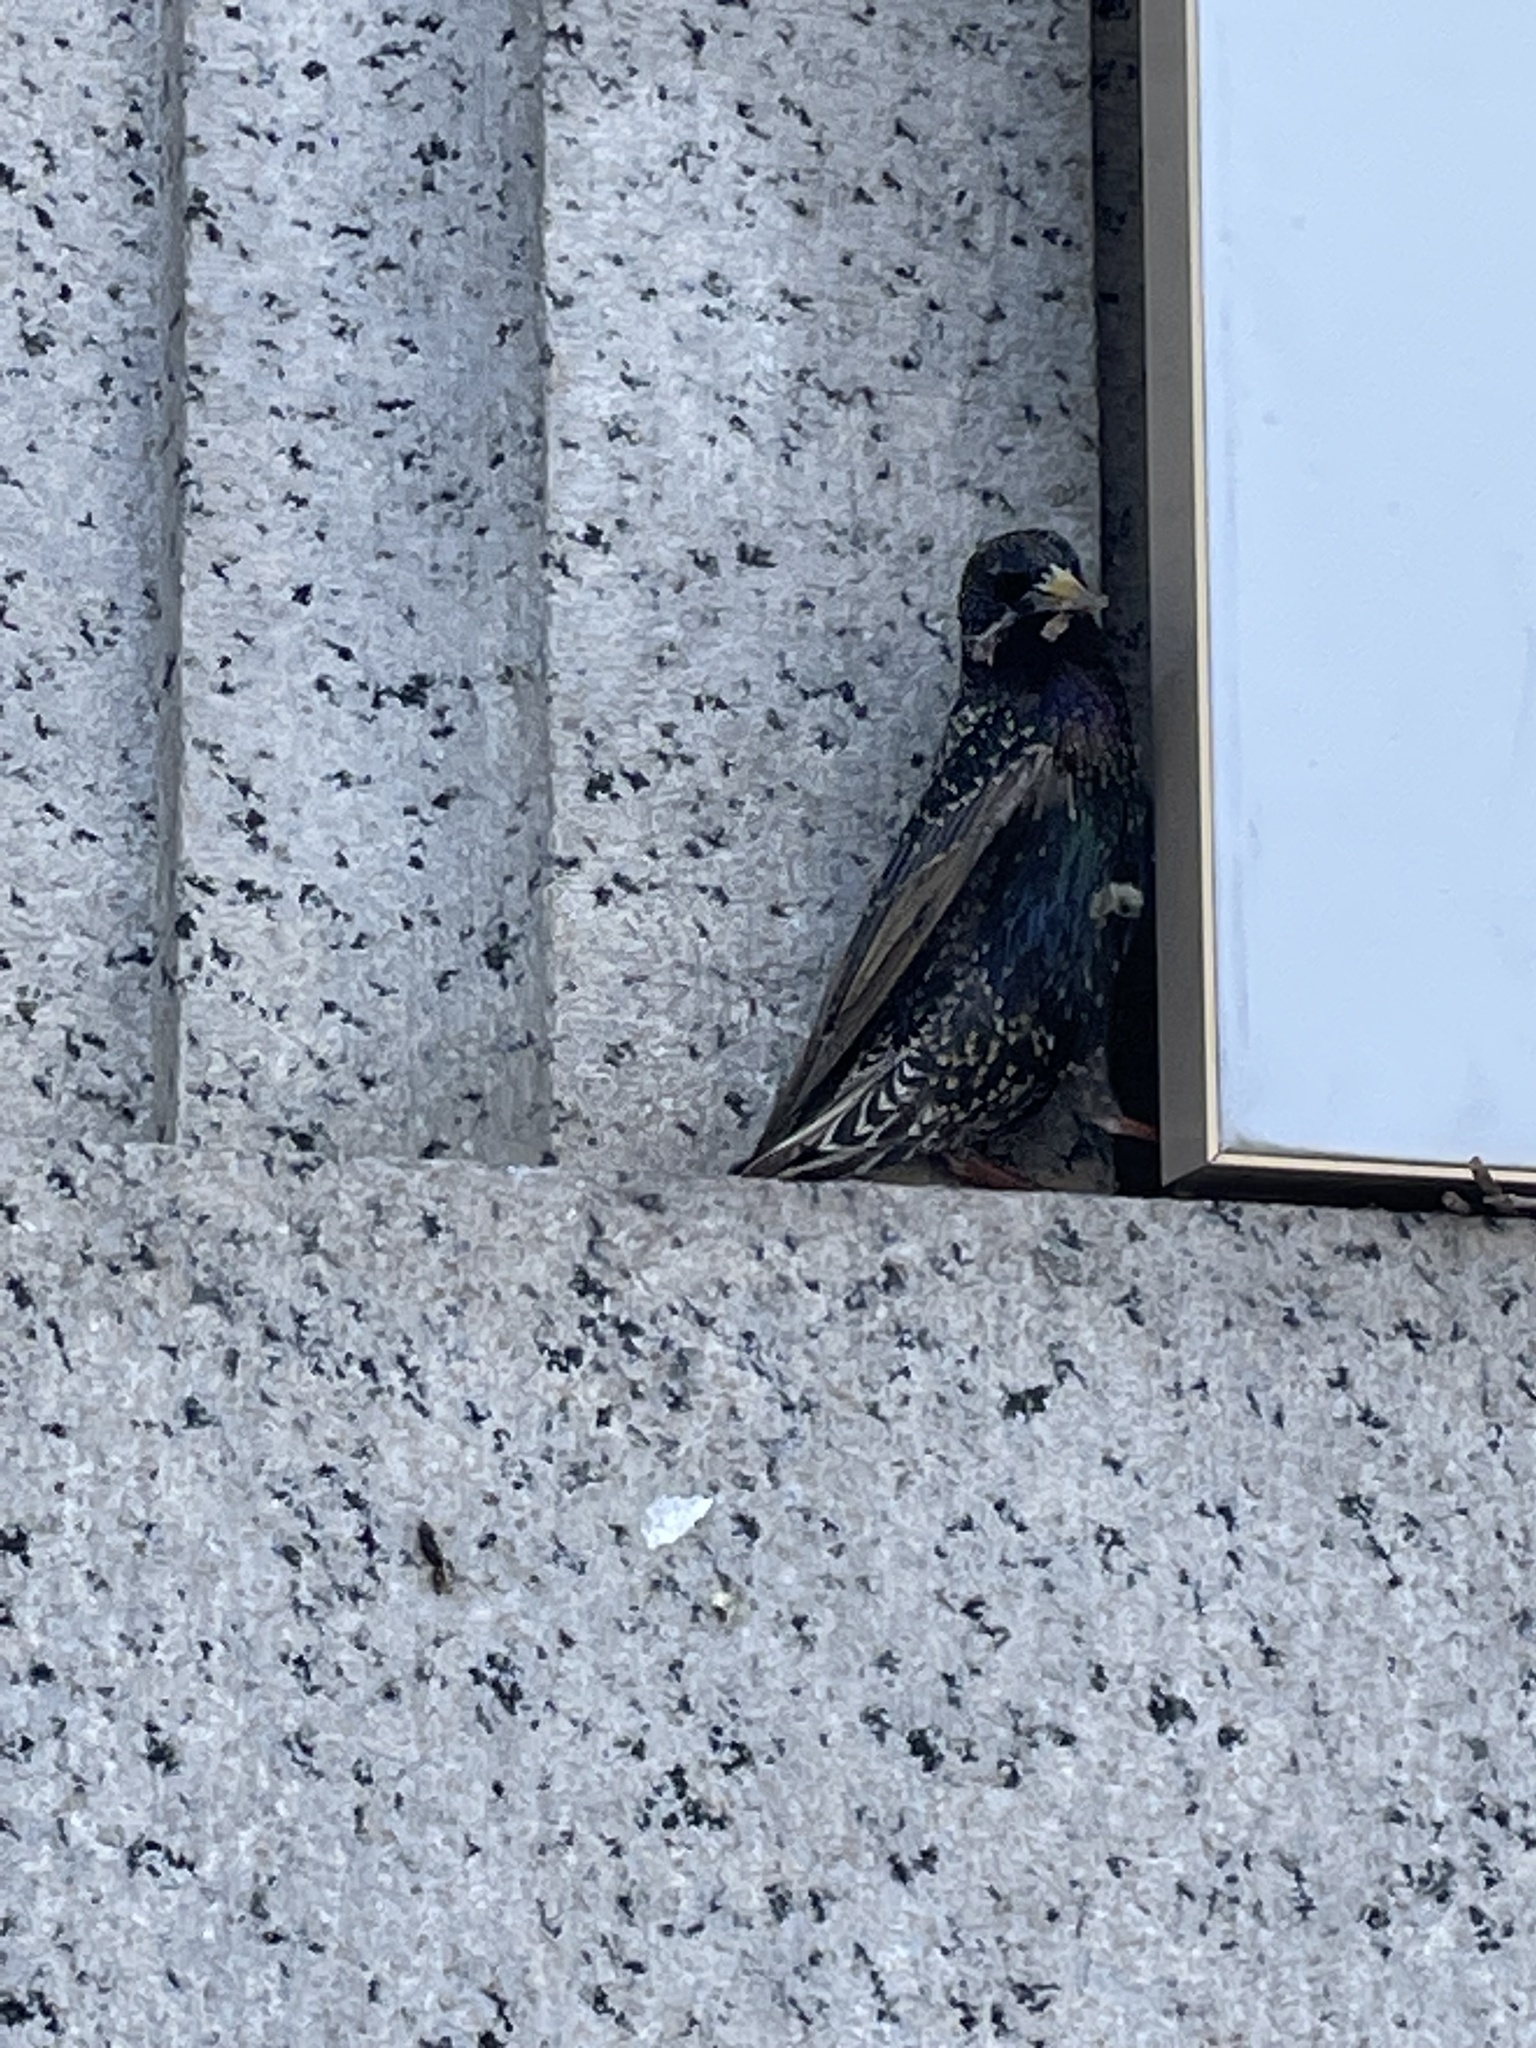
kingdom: Animalia
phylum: Chordata
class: Aves
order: Passeriformes
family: Sturnidae
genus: Sturnus
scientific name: Sturnus vulgaris
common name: Common starling
